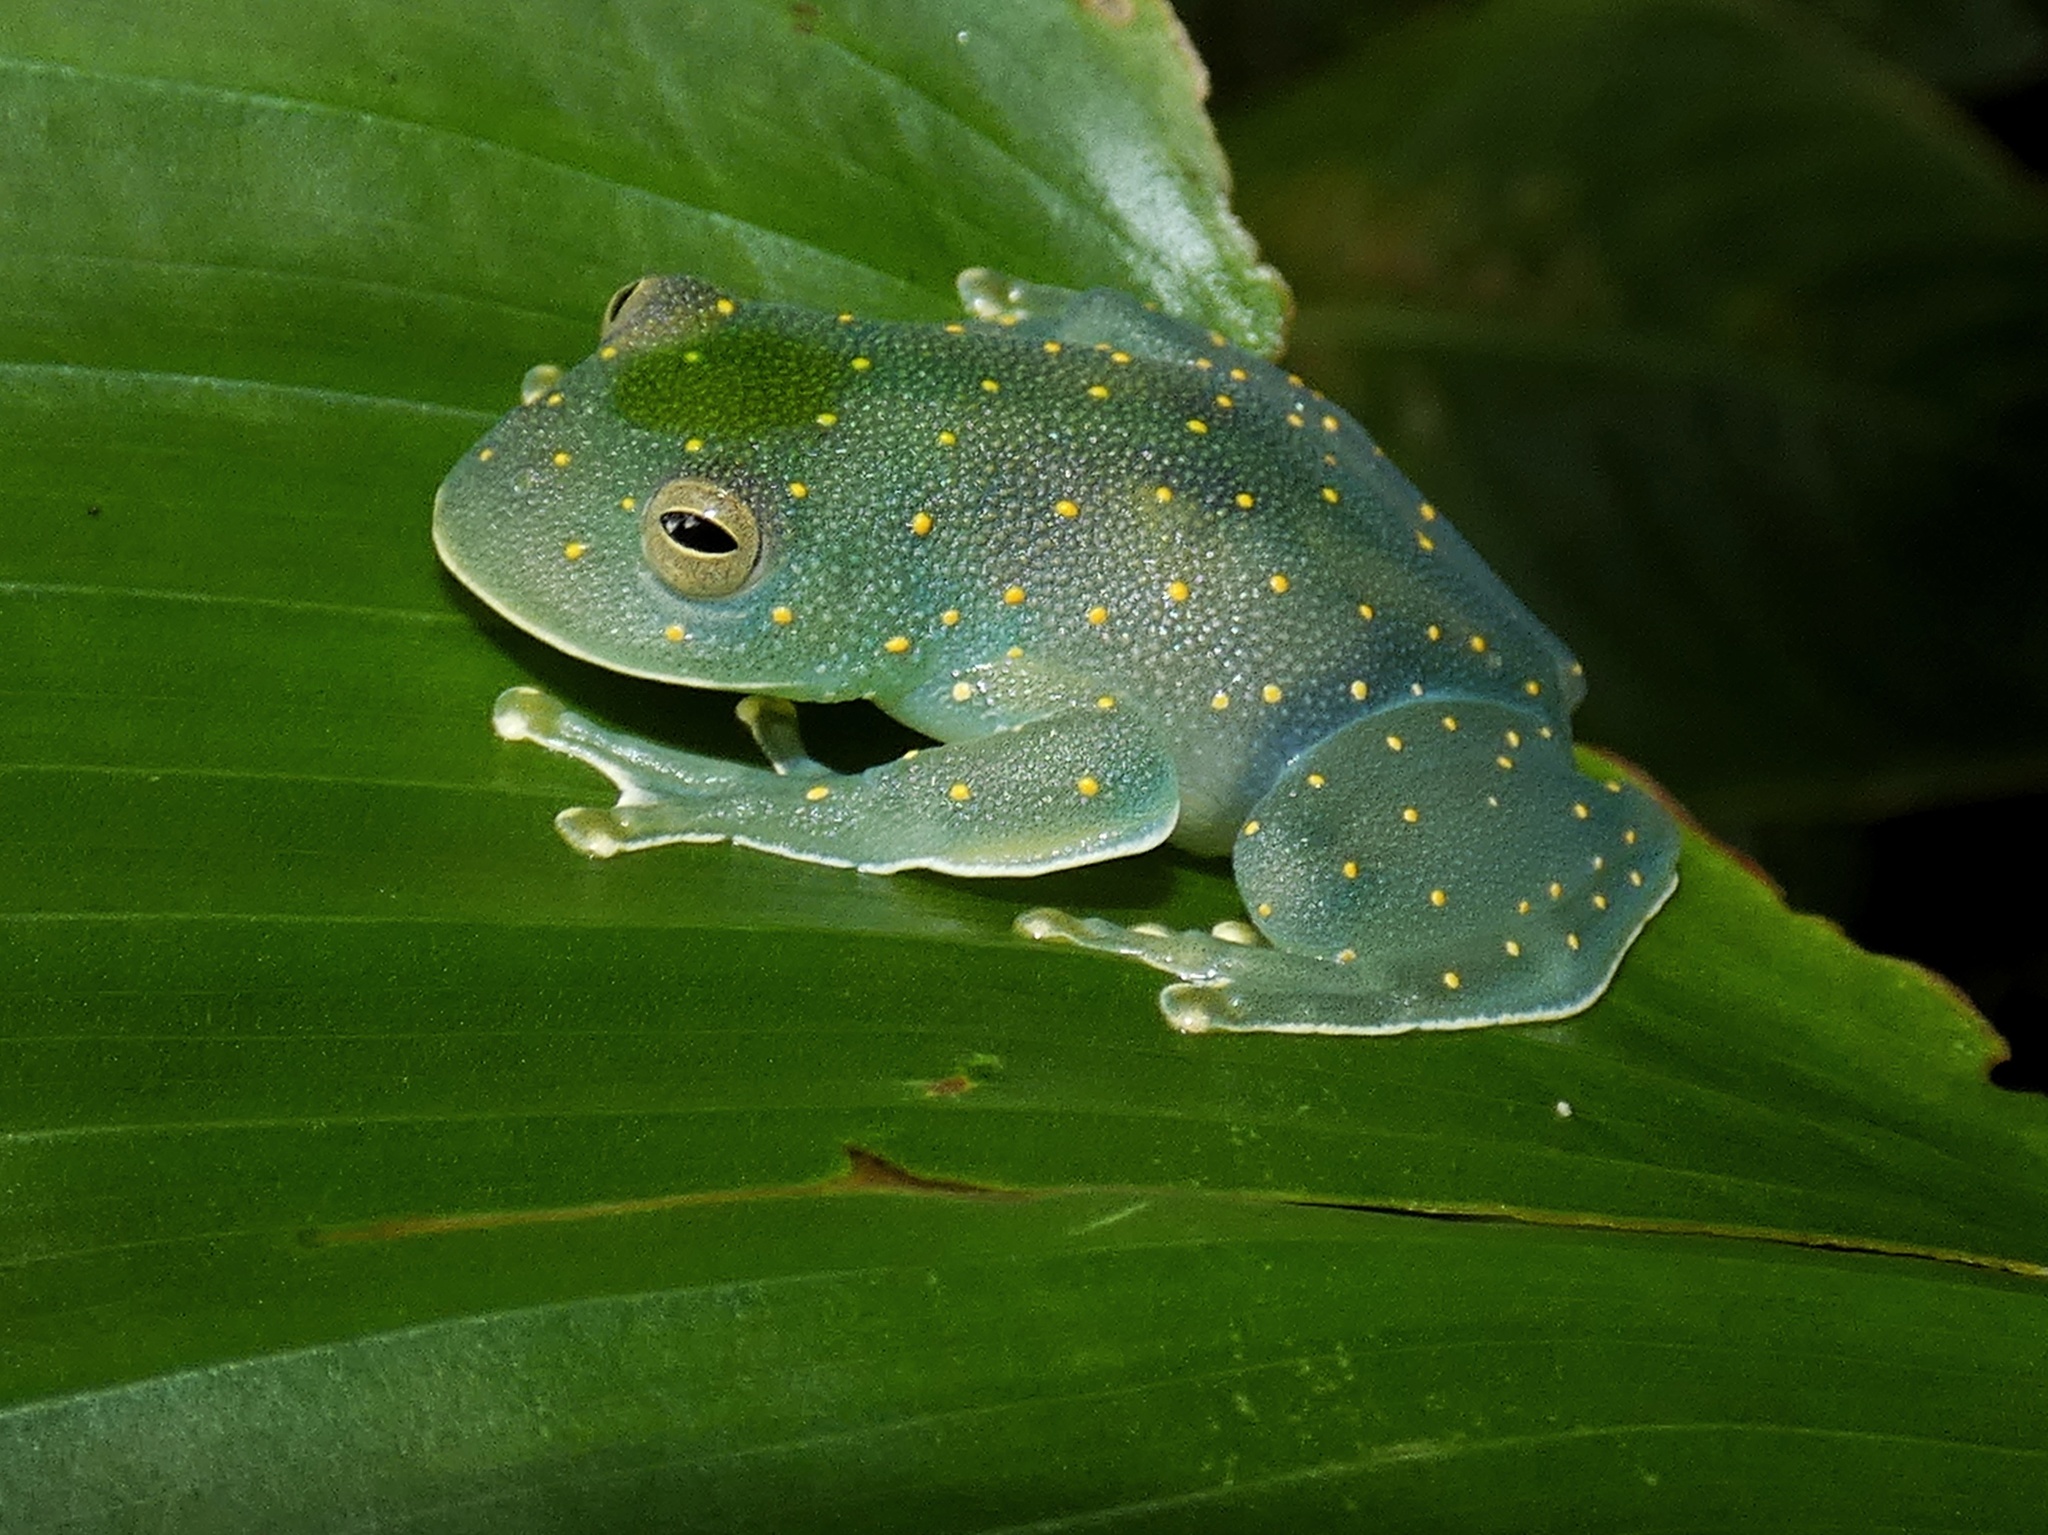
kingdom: Animalia
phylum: Chordata
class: Amphibia
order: Anura
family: Centrolenidae
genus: Cochranella
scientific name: Cochranella euknemos
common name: San jose cochran frog
